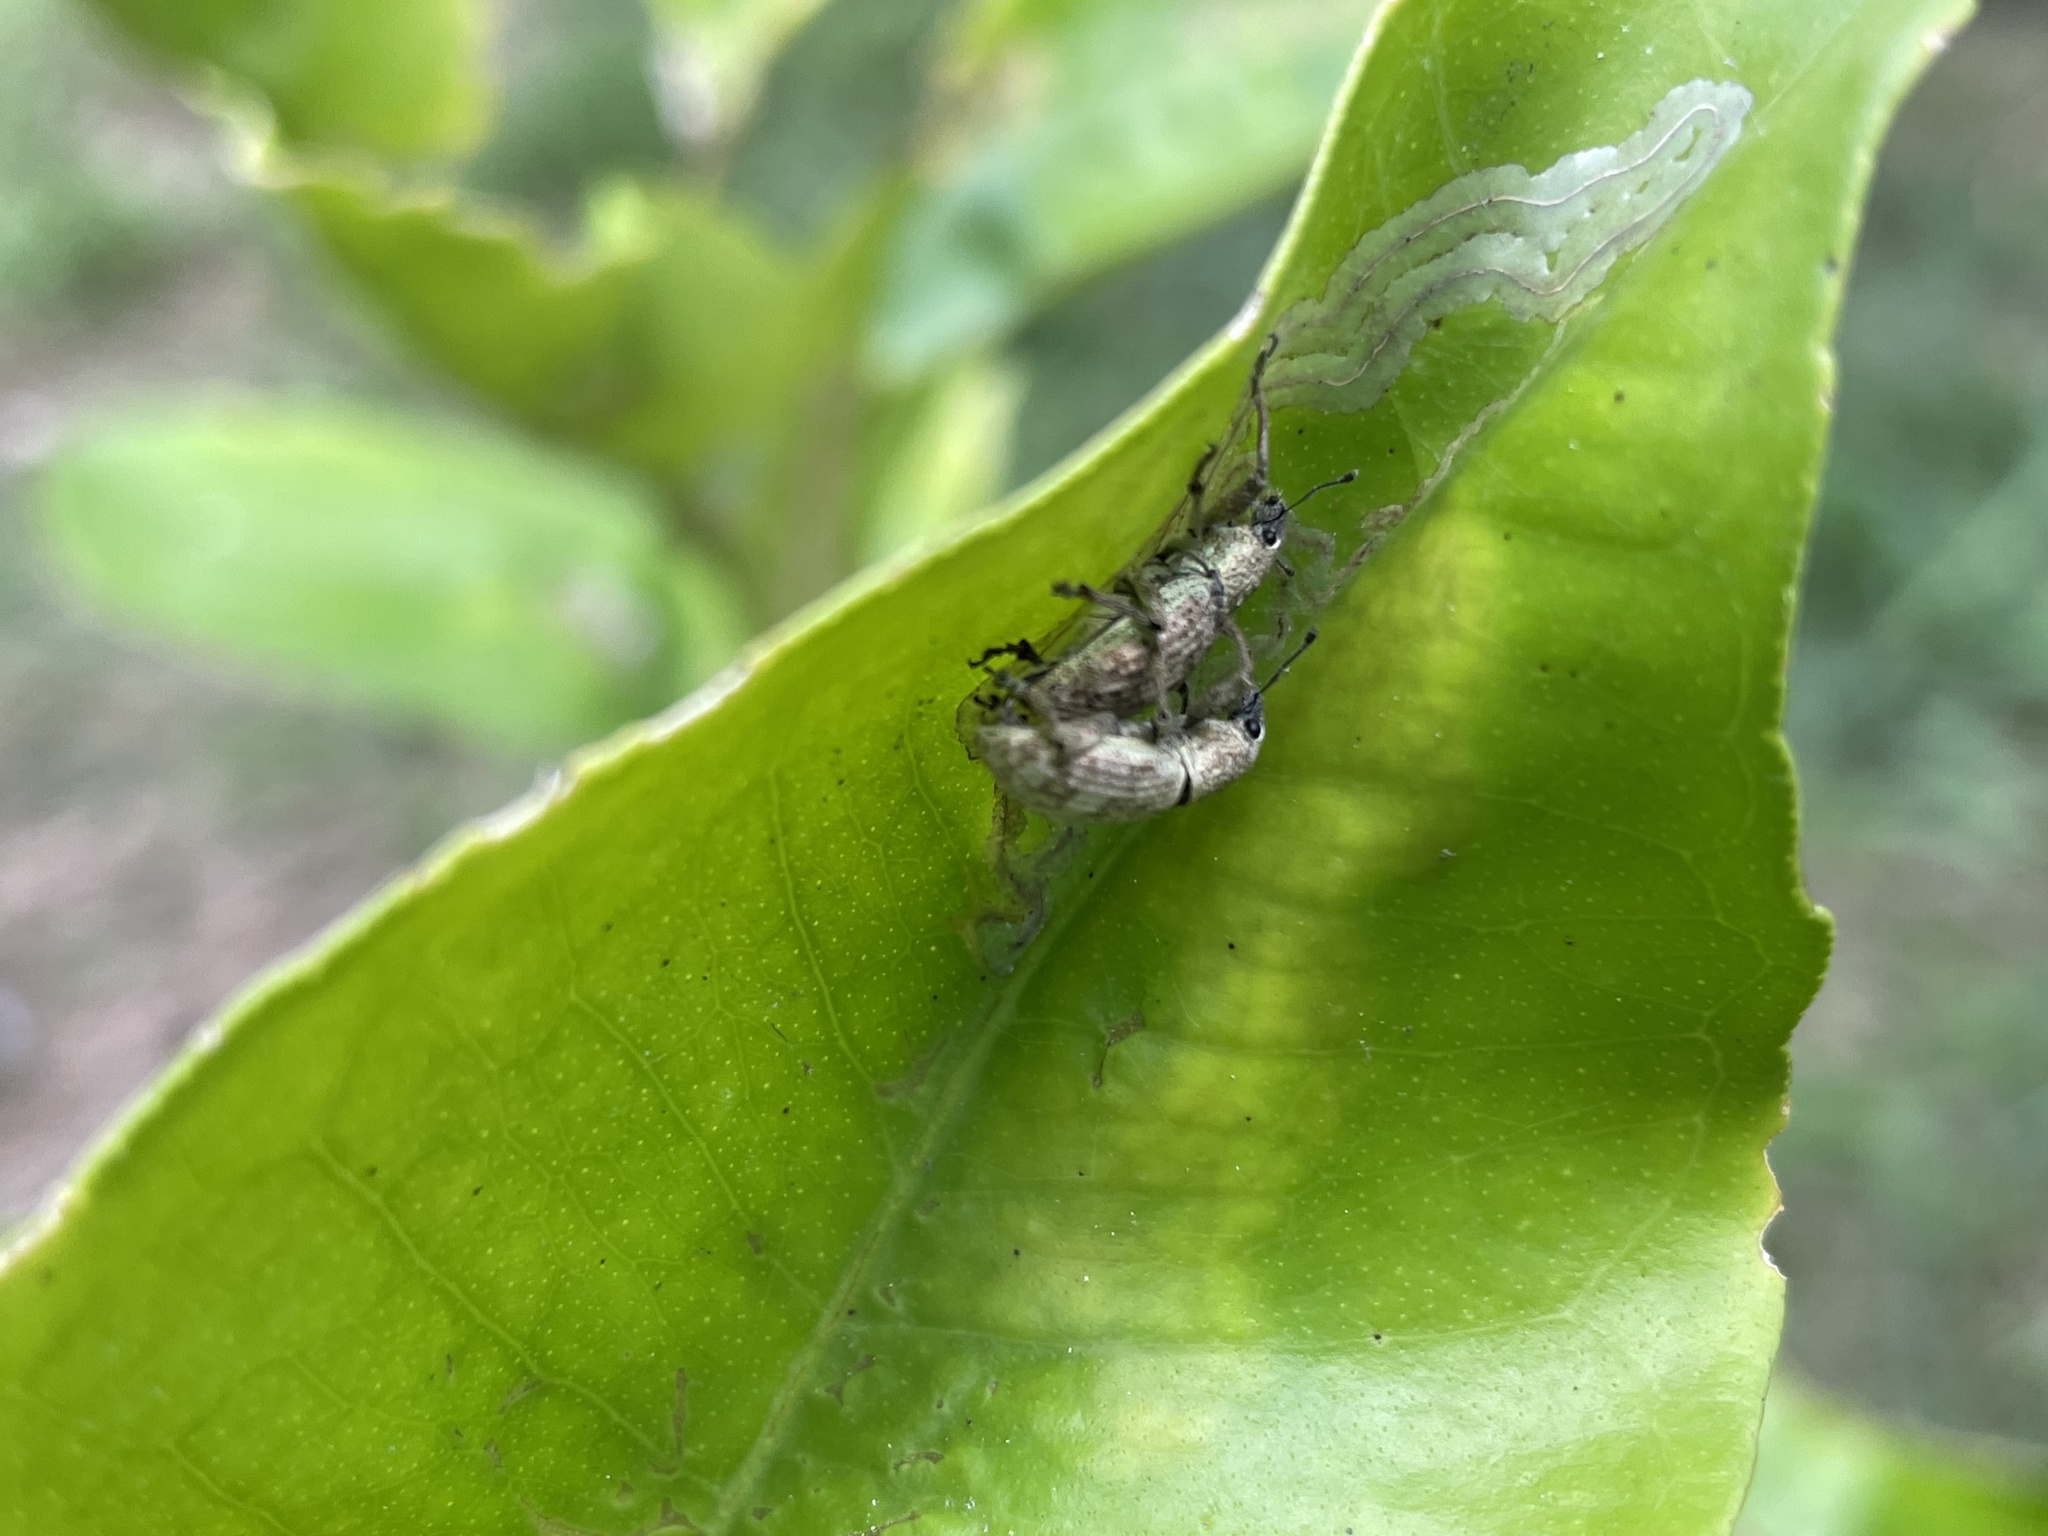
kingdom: Animalia
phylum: Arthropoda
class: Insecta
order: Coleoptera
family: Curculionidae
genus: Sympiezomias
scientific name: Sympiezomias cribricollis
